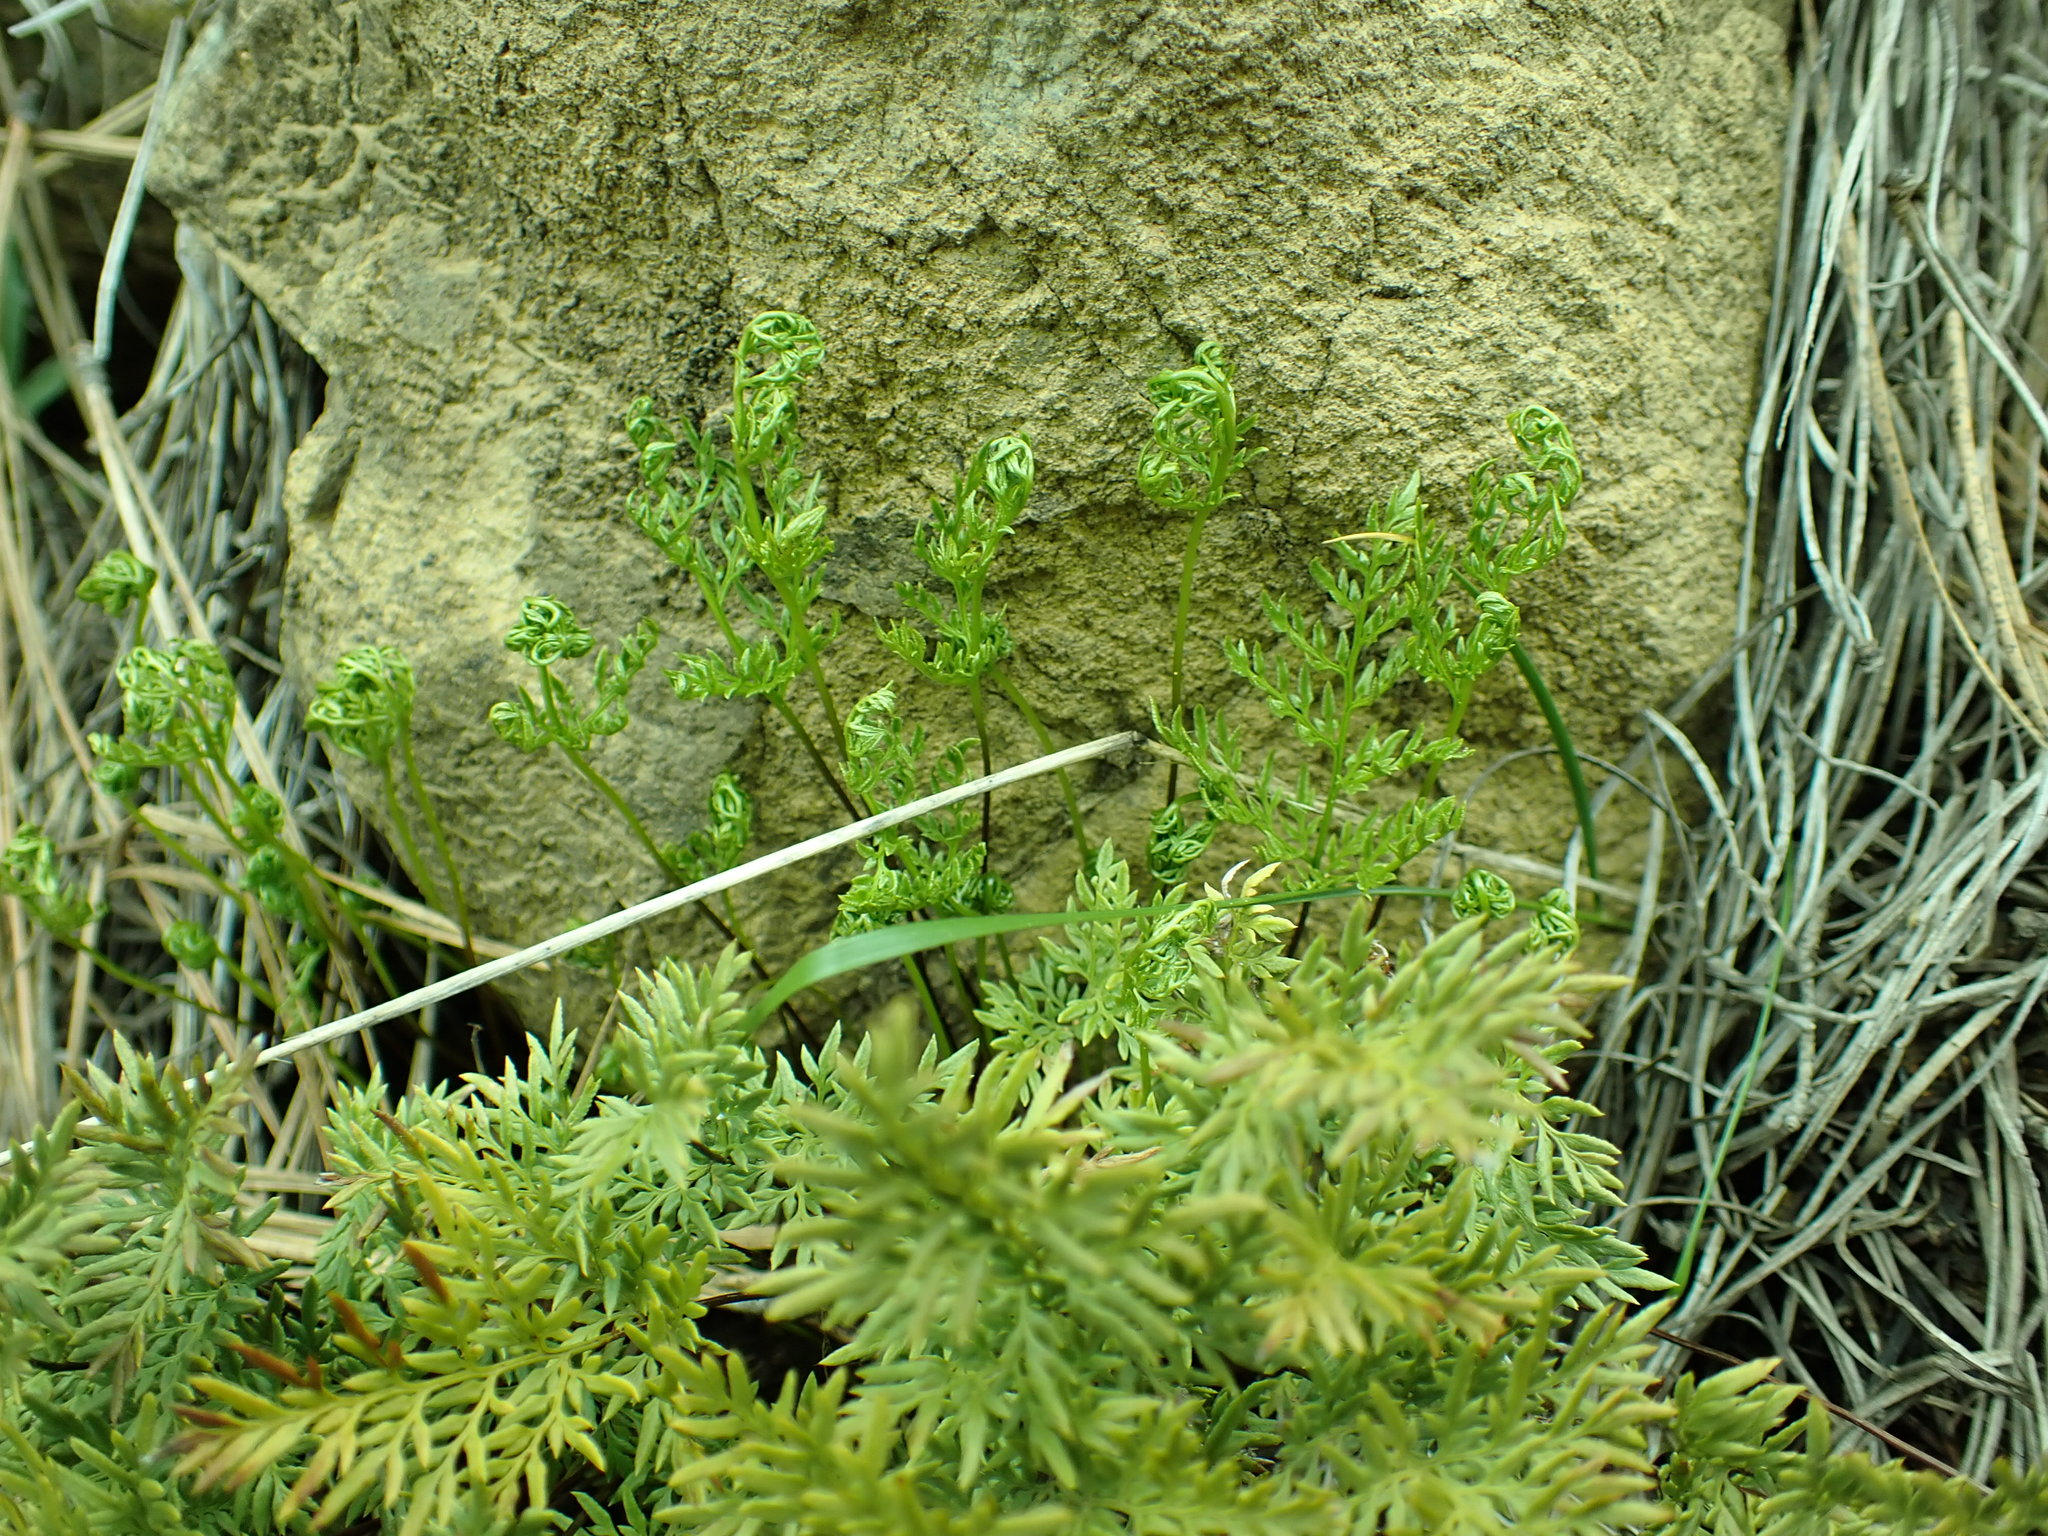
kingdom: Plantae
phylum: Tracheophyta
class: Polypodiopsida
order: Polypodiales
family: Pteridaceae
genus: Aspidotis
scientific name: Aspidotis densa
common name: Indian's dream
